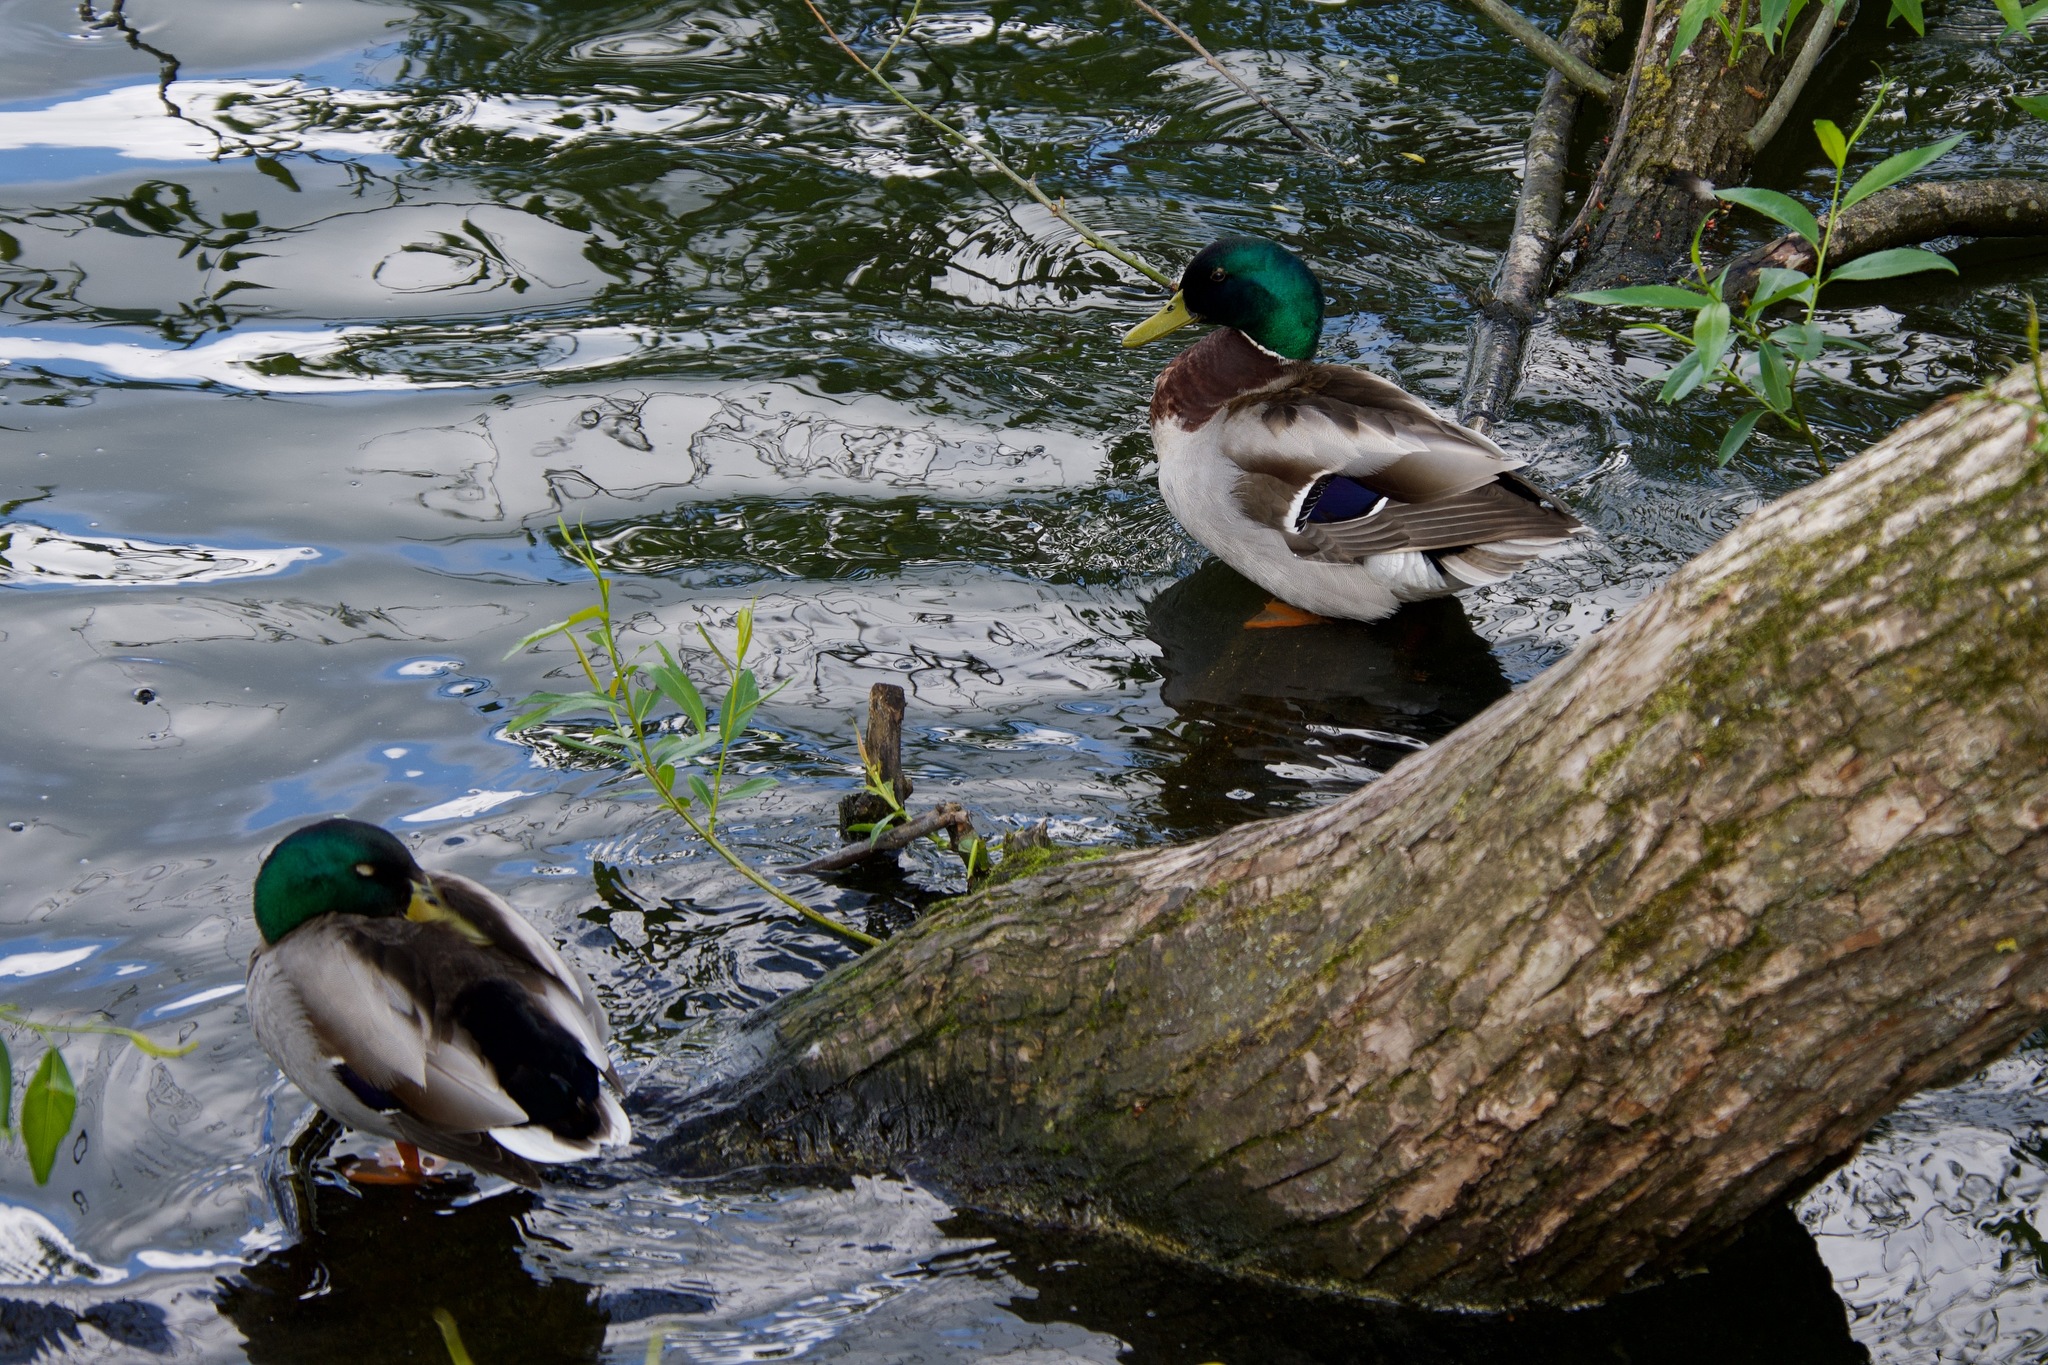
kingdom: Animalia
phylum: Chordata
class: Aves
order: Anseriformes
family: Anatidae
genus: Anas
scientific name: Anas platyrhynchos
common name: Mallard
